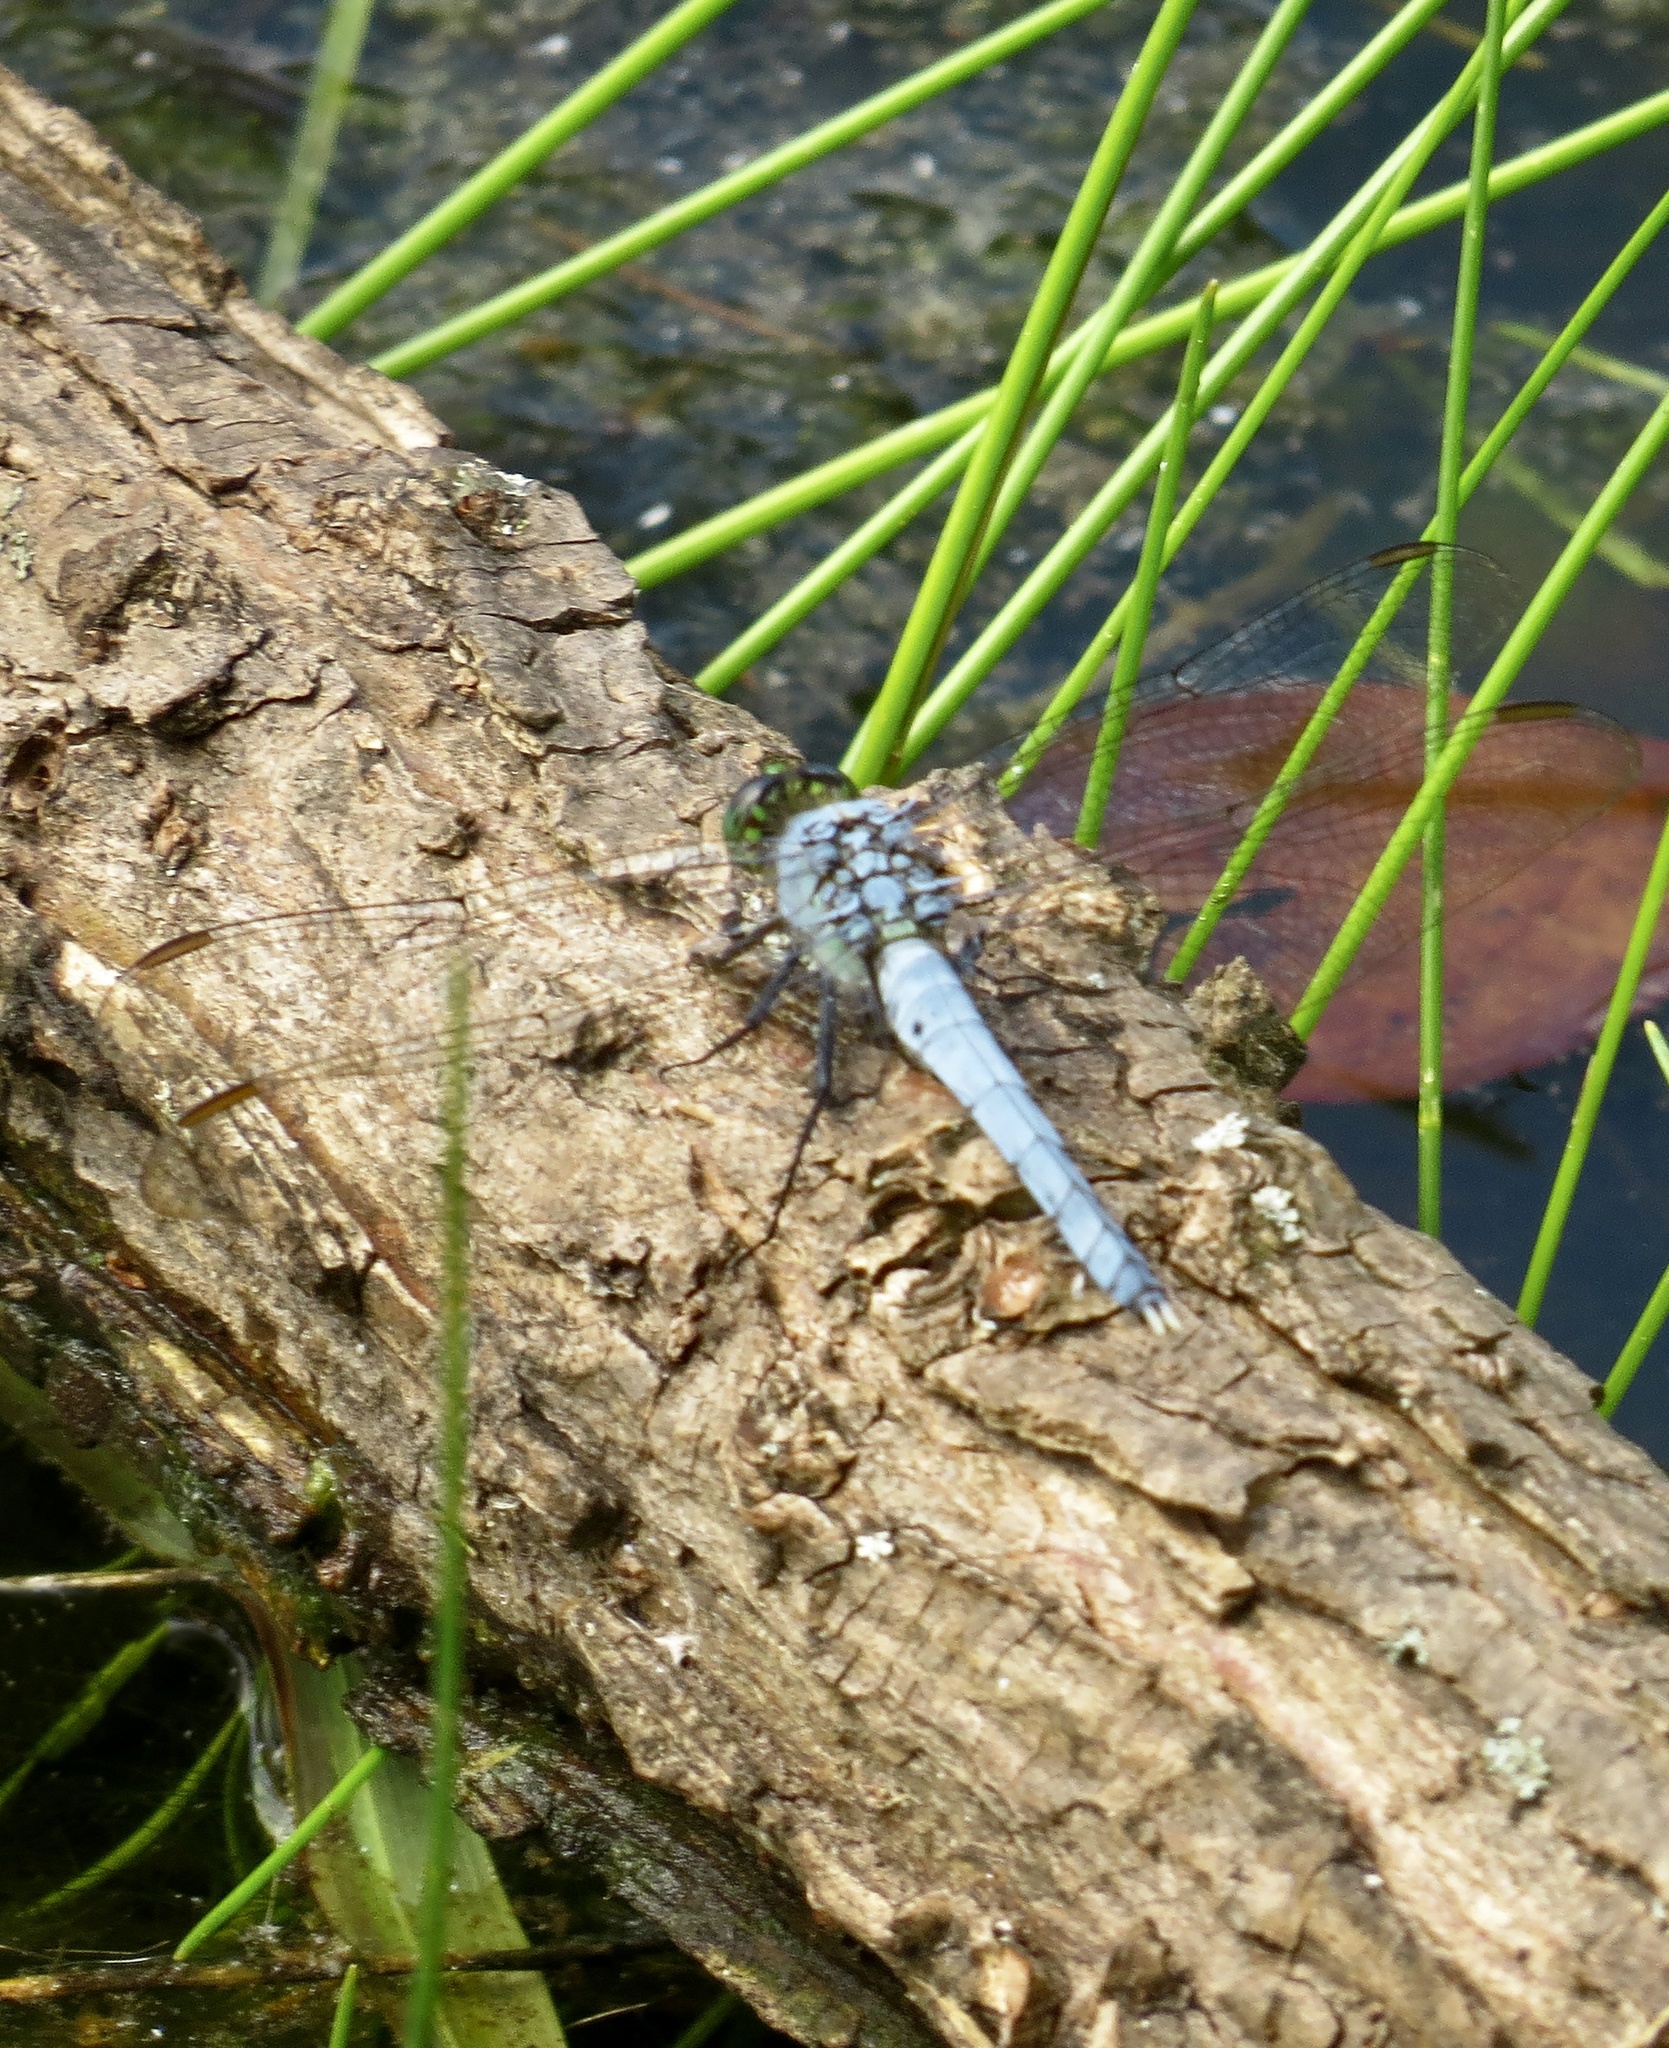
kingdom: Animalia
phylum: Arthropoda
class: Insecta
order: Odonata
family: Libellulidae
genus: Erythemis
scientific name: Erythemis simplicicollis
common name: Eastern pondhawk
